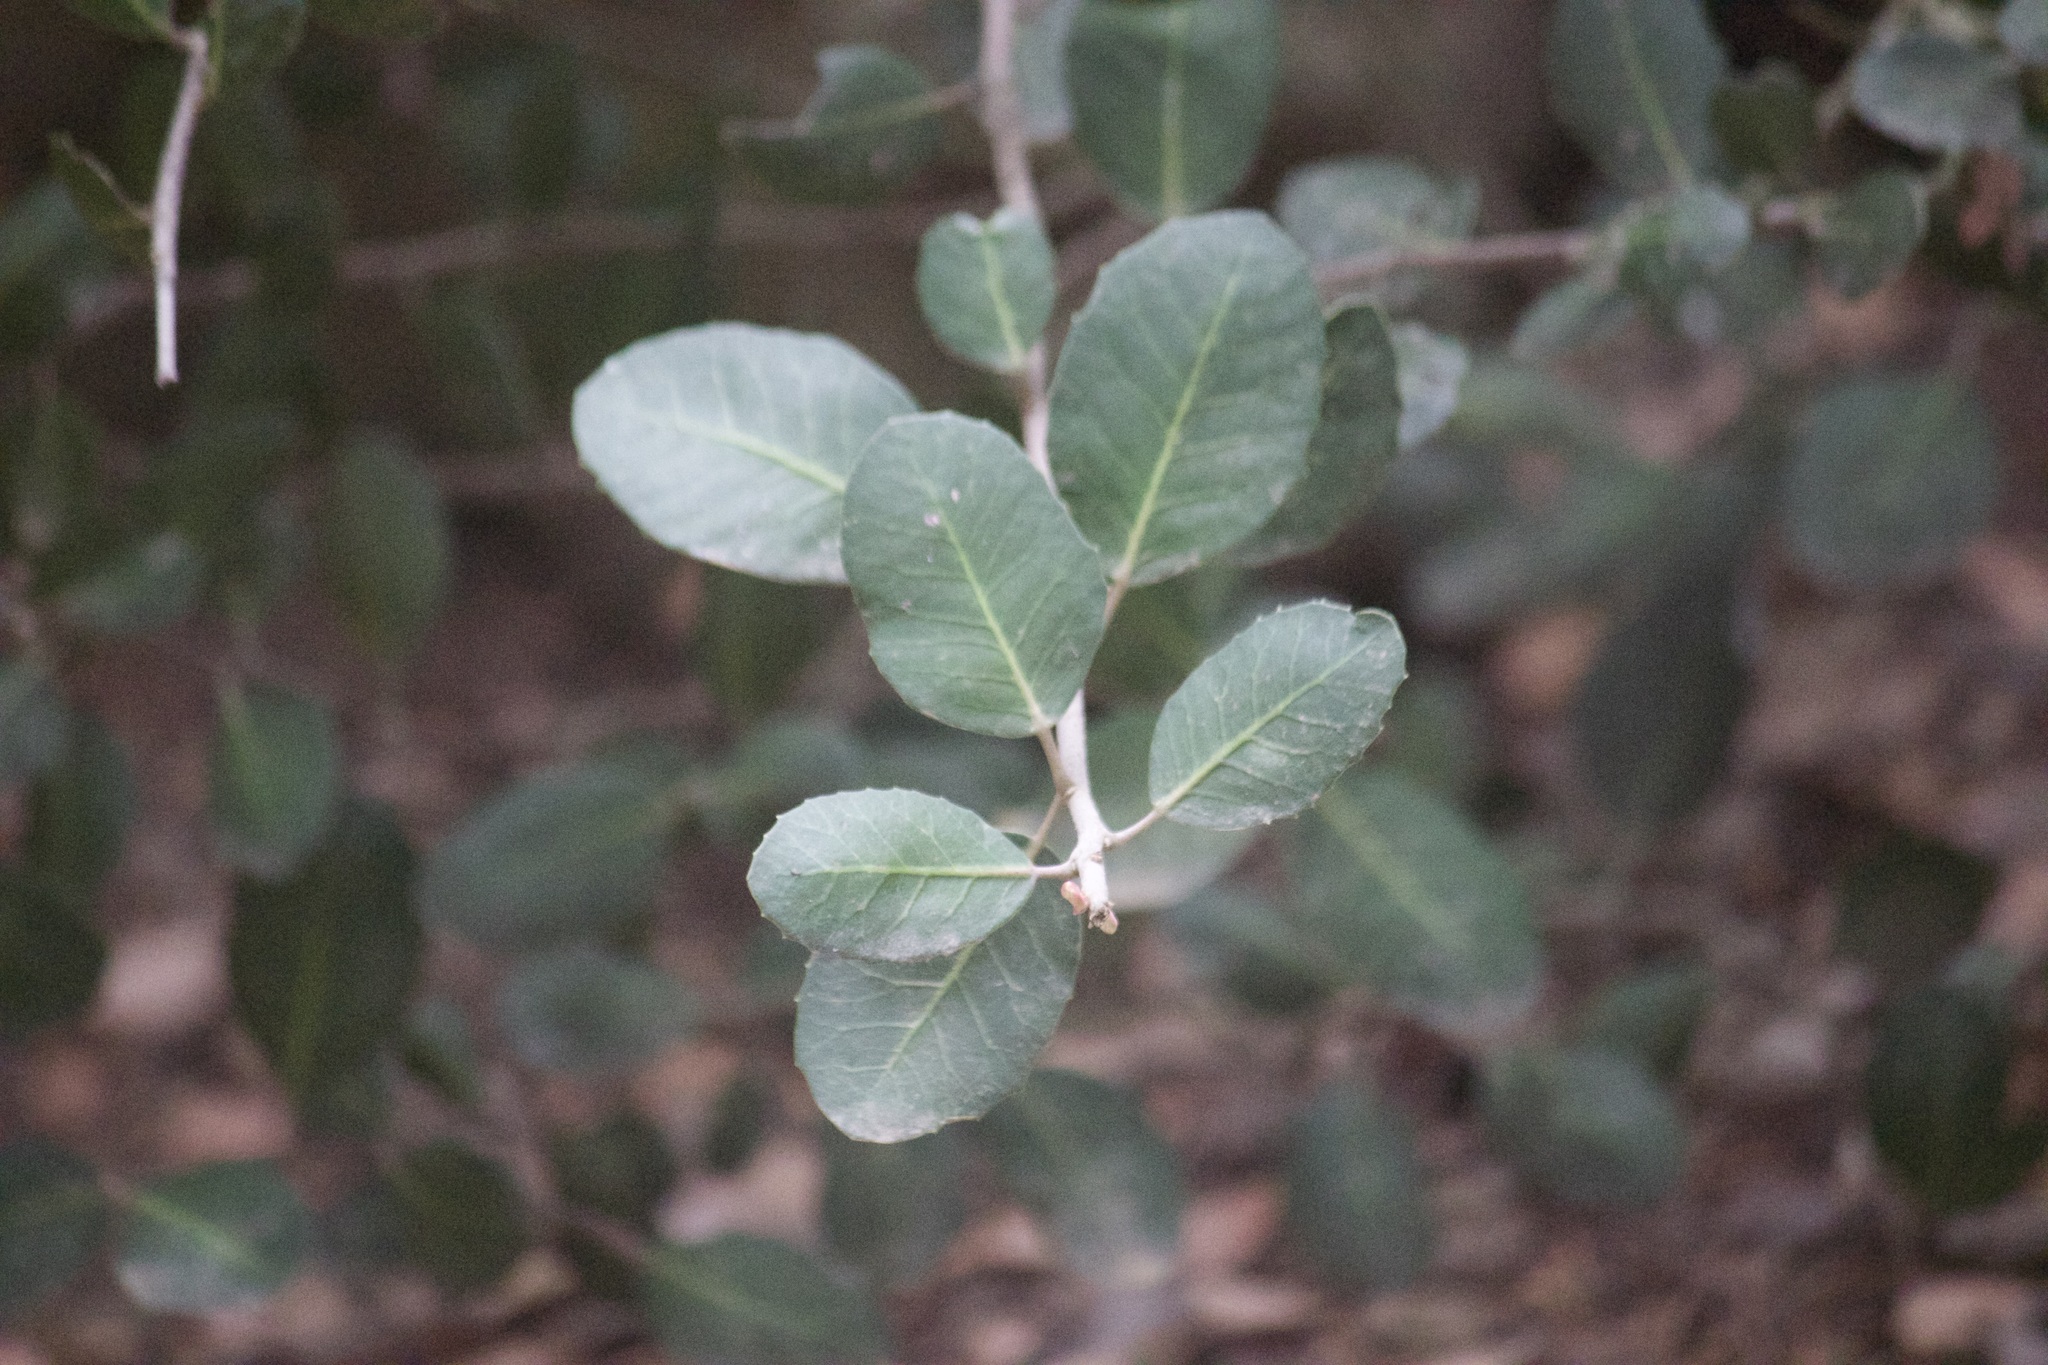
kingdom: Plantae
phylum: Tracheophyta
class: Magnoliopsida
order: Sapindales
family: Anacardiaceae
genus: Rhus
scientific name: Rhus integrifolia
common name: Lemonade sumac
